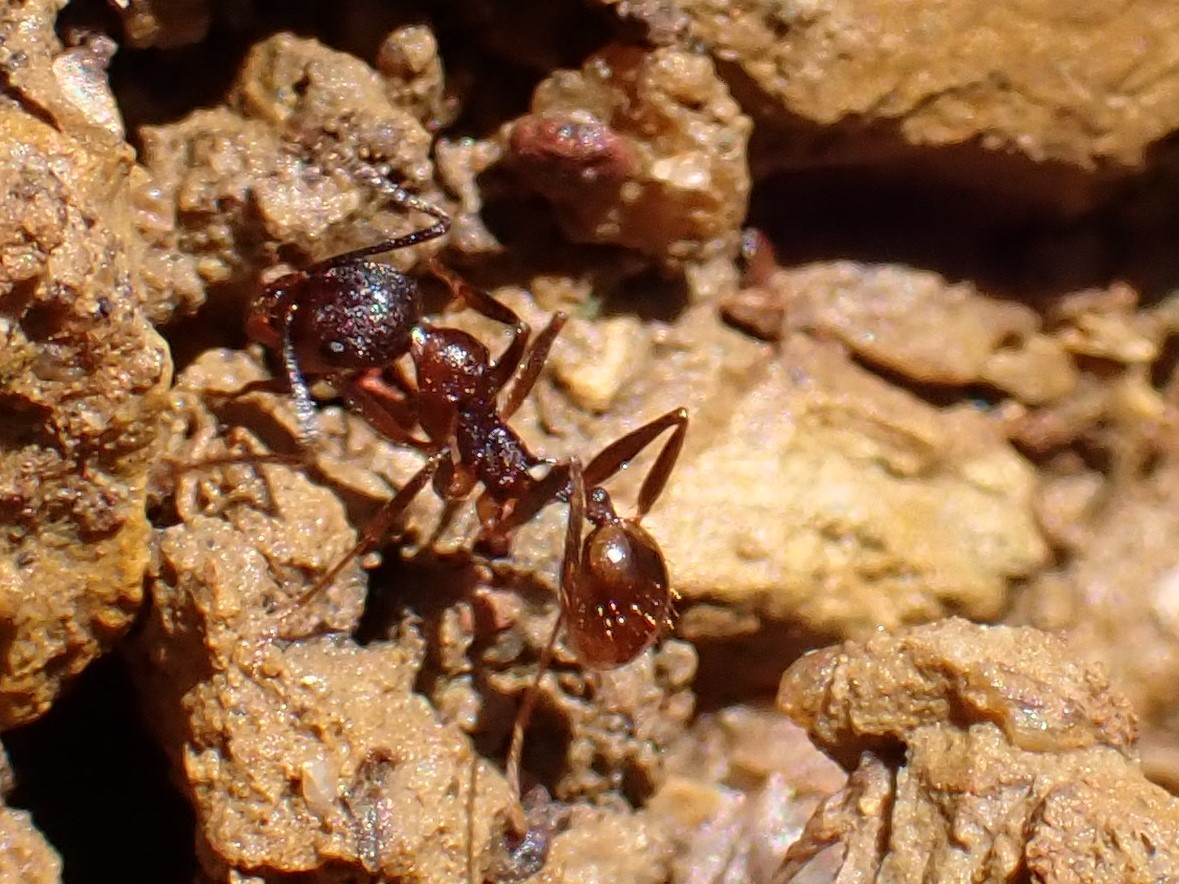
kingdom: Animalia
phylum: Arthropoda
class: Insecta
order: Hymenoptera
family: Formicidae
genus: Aphaenogaster
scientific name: Aphaenogaster fulva
